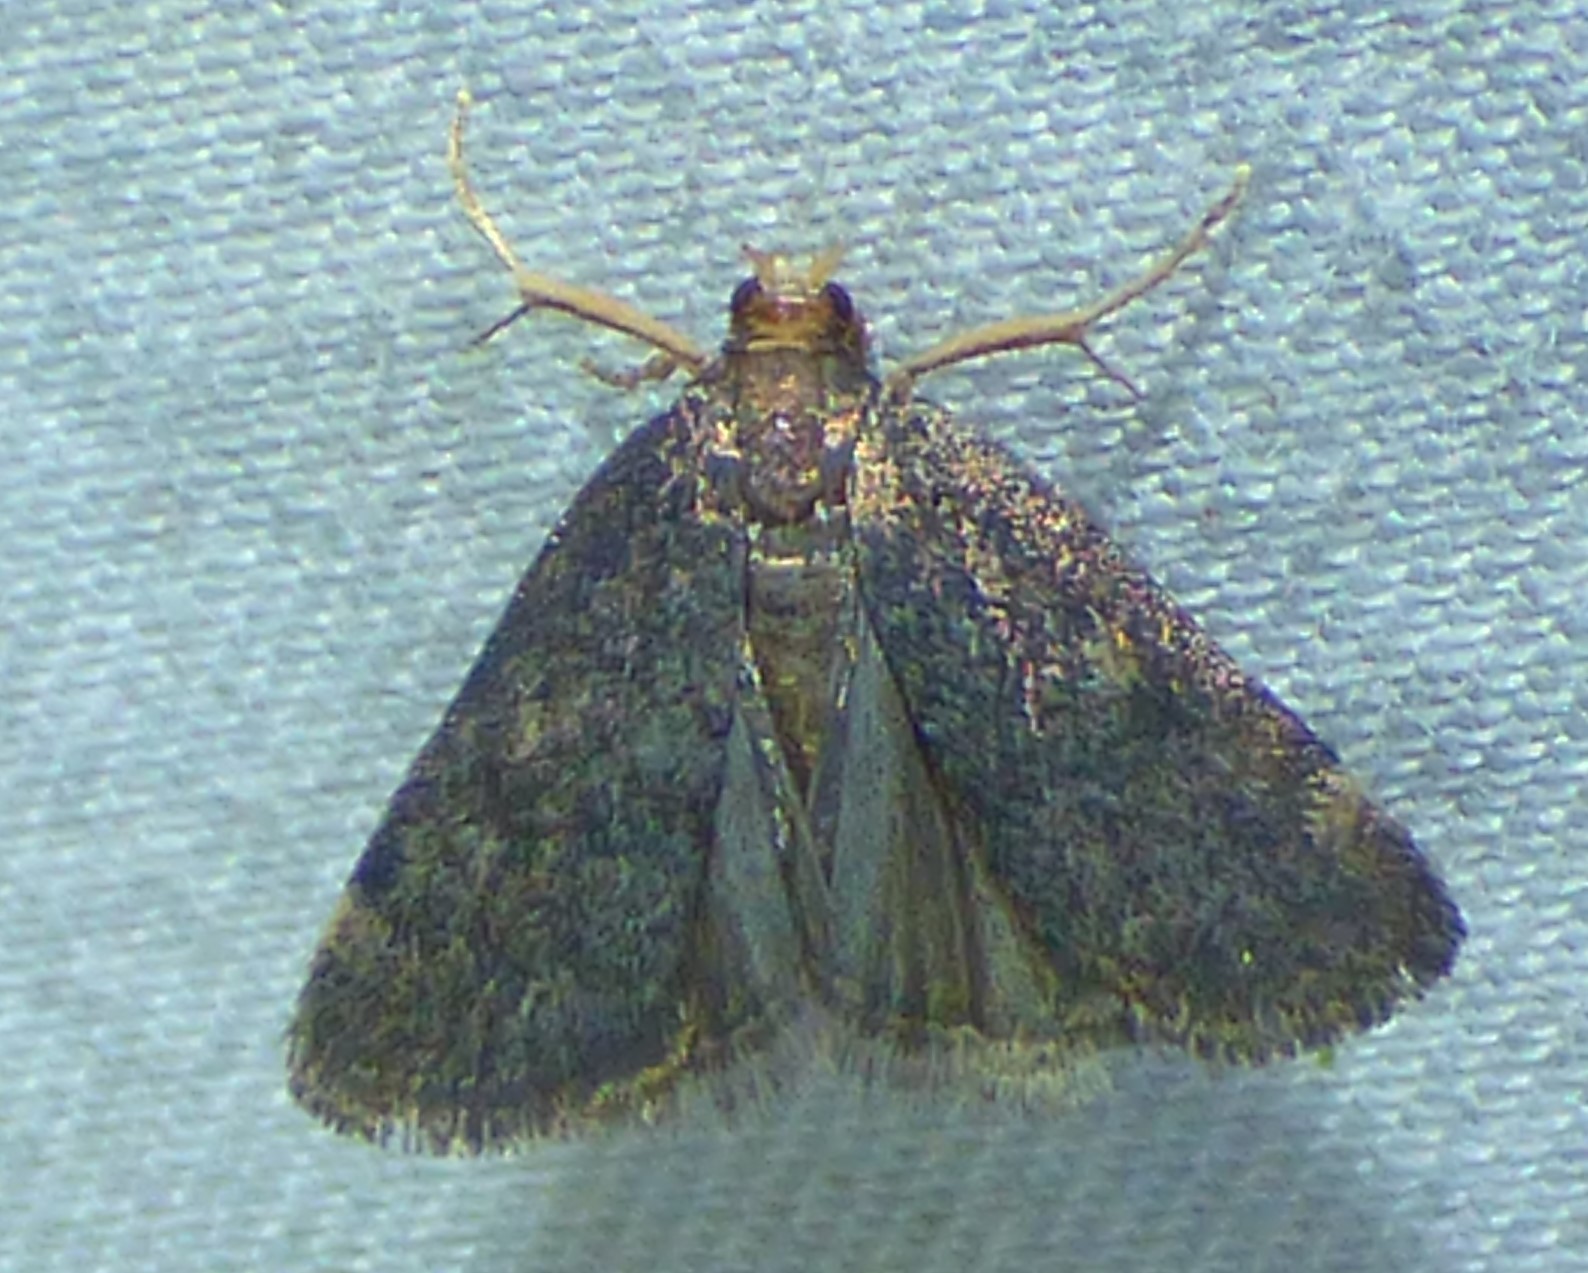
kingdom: Animalia
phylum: Arthropoda
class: Insecta
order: Lepidoptera
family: Crambidae
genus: Pyrausta
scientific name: Pyrausta merrickalis
